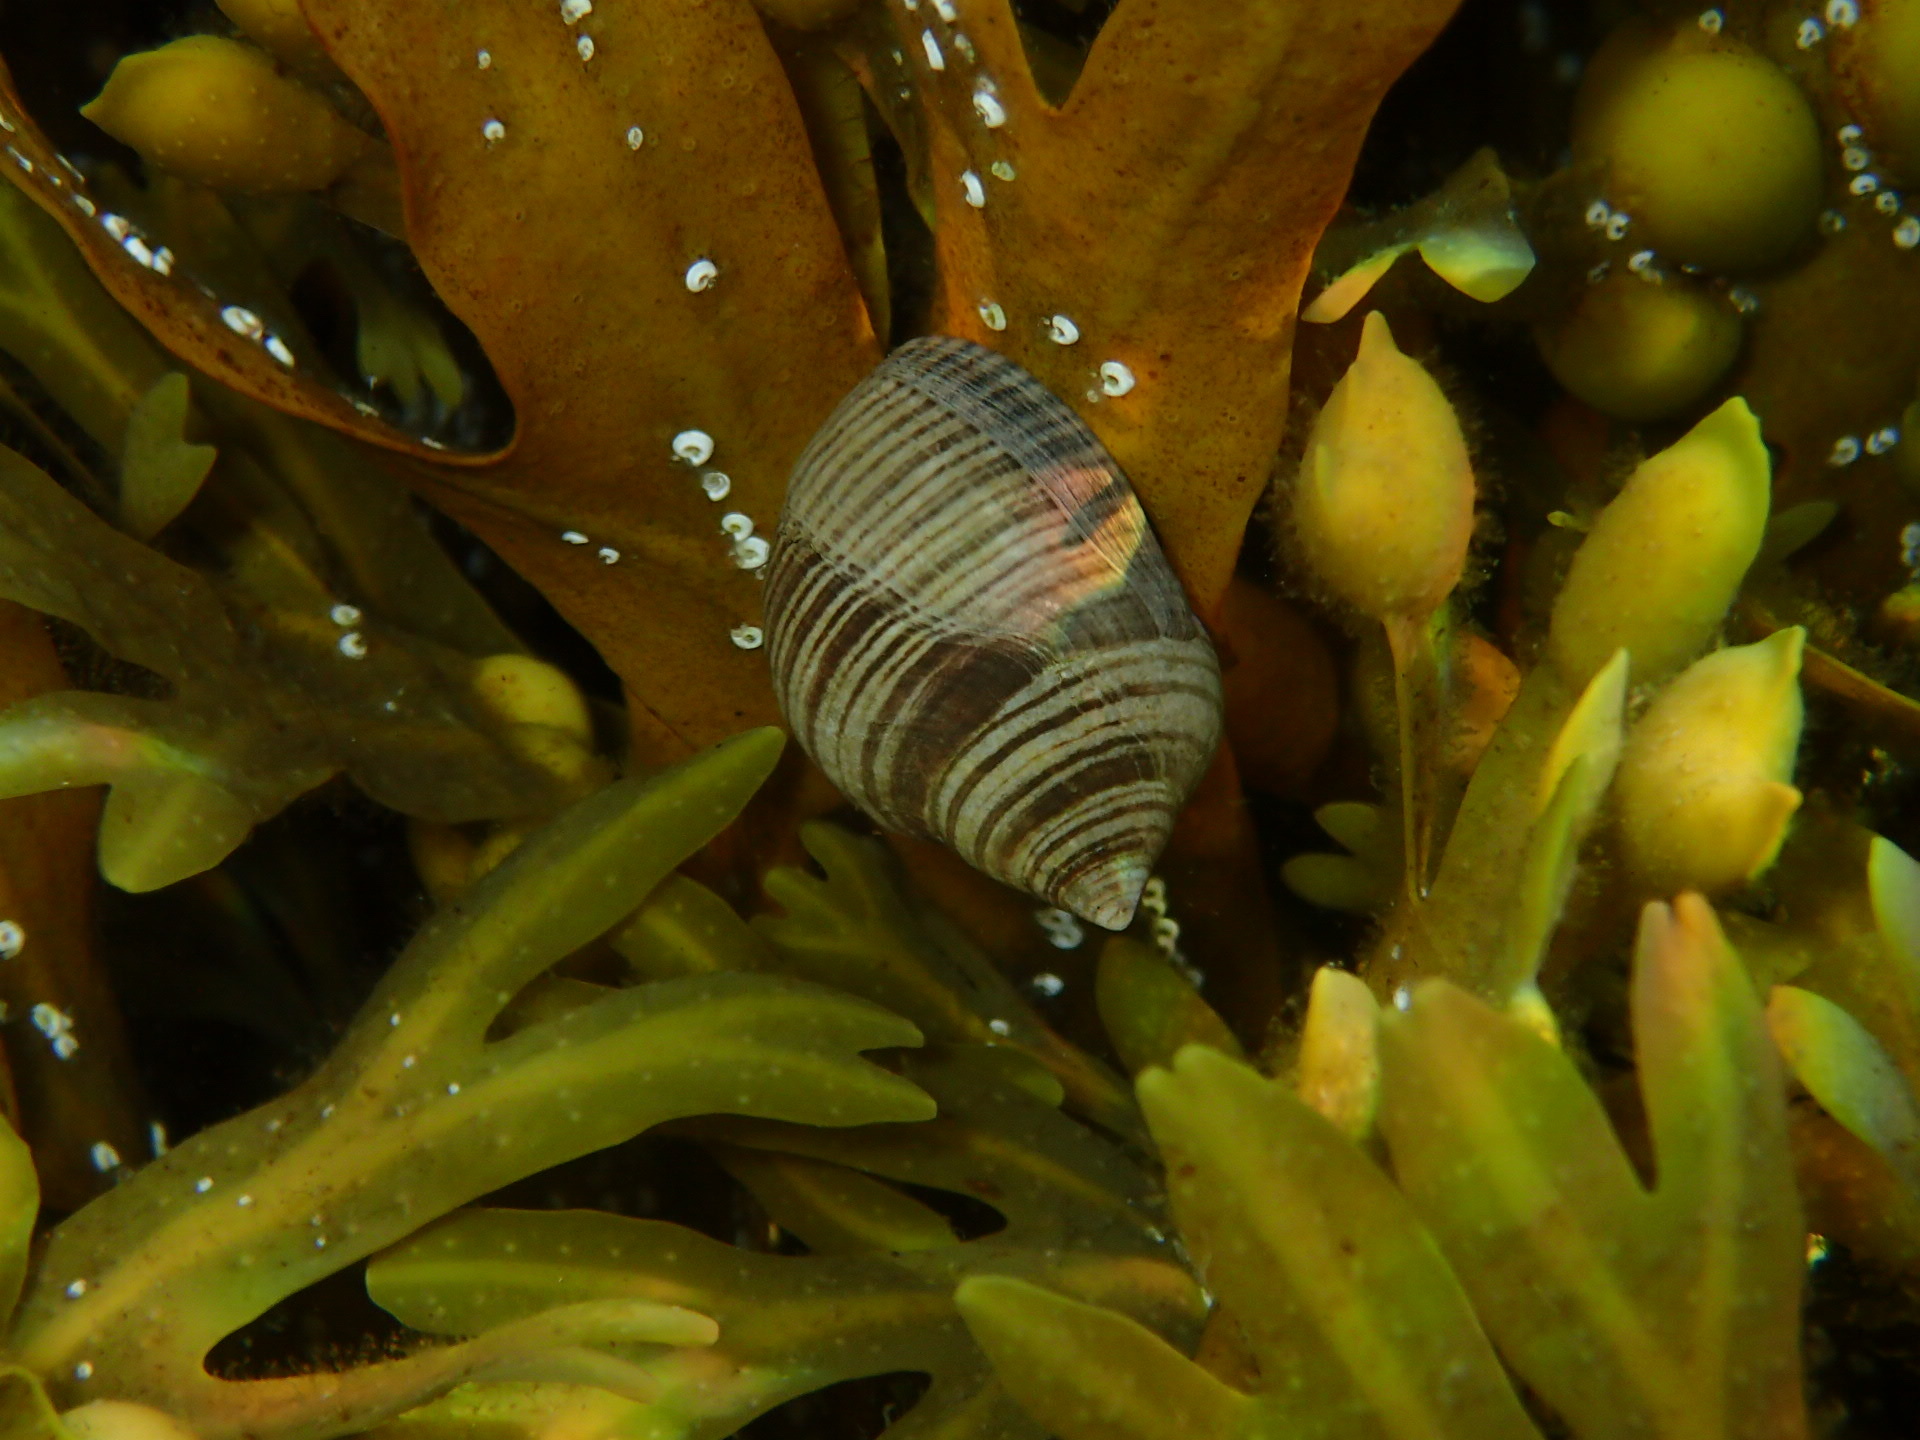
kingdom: Animalia
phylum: Mollusca
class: Gastropoda
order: Littorinimorpha
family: Littorinidae
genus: Littorina
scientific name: Littorina littorea
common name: Common periwinkle
